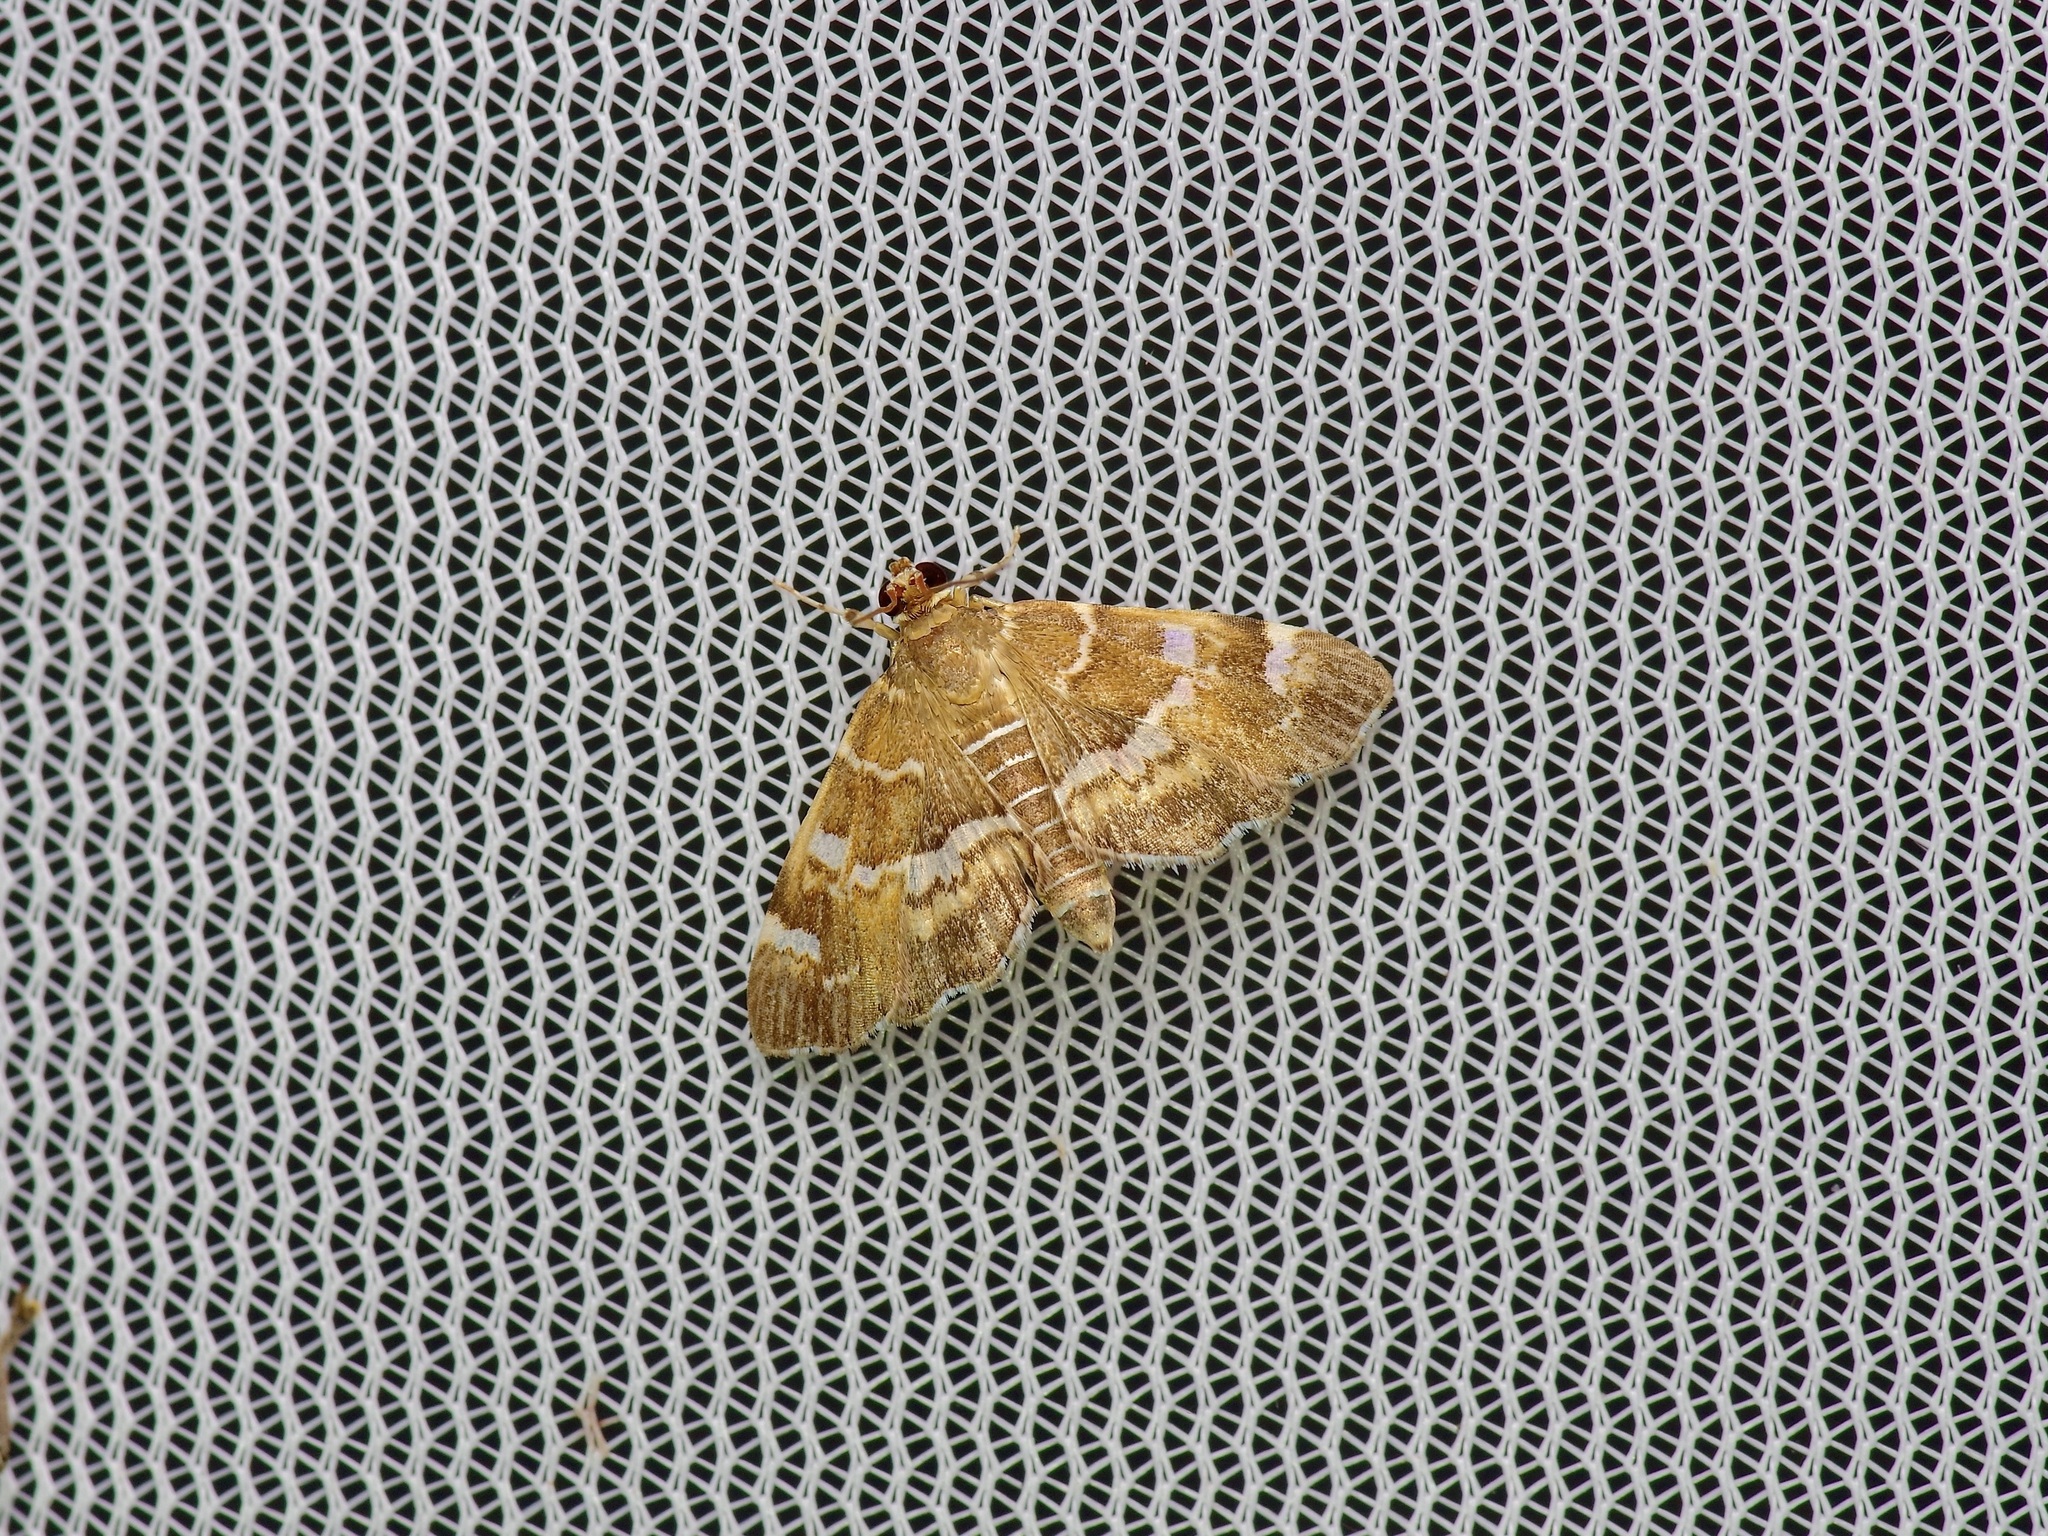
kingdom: Animalia
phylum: Arthropoda
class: Insecta
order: Lepidoptera
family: Crambidae
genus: Hymenia
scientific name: Hymenia perspectalis
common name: Spotted beet webworm
